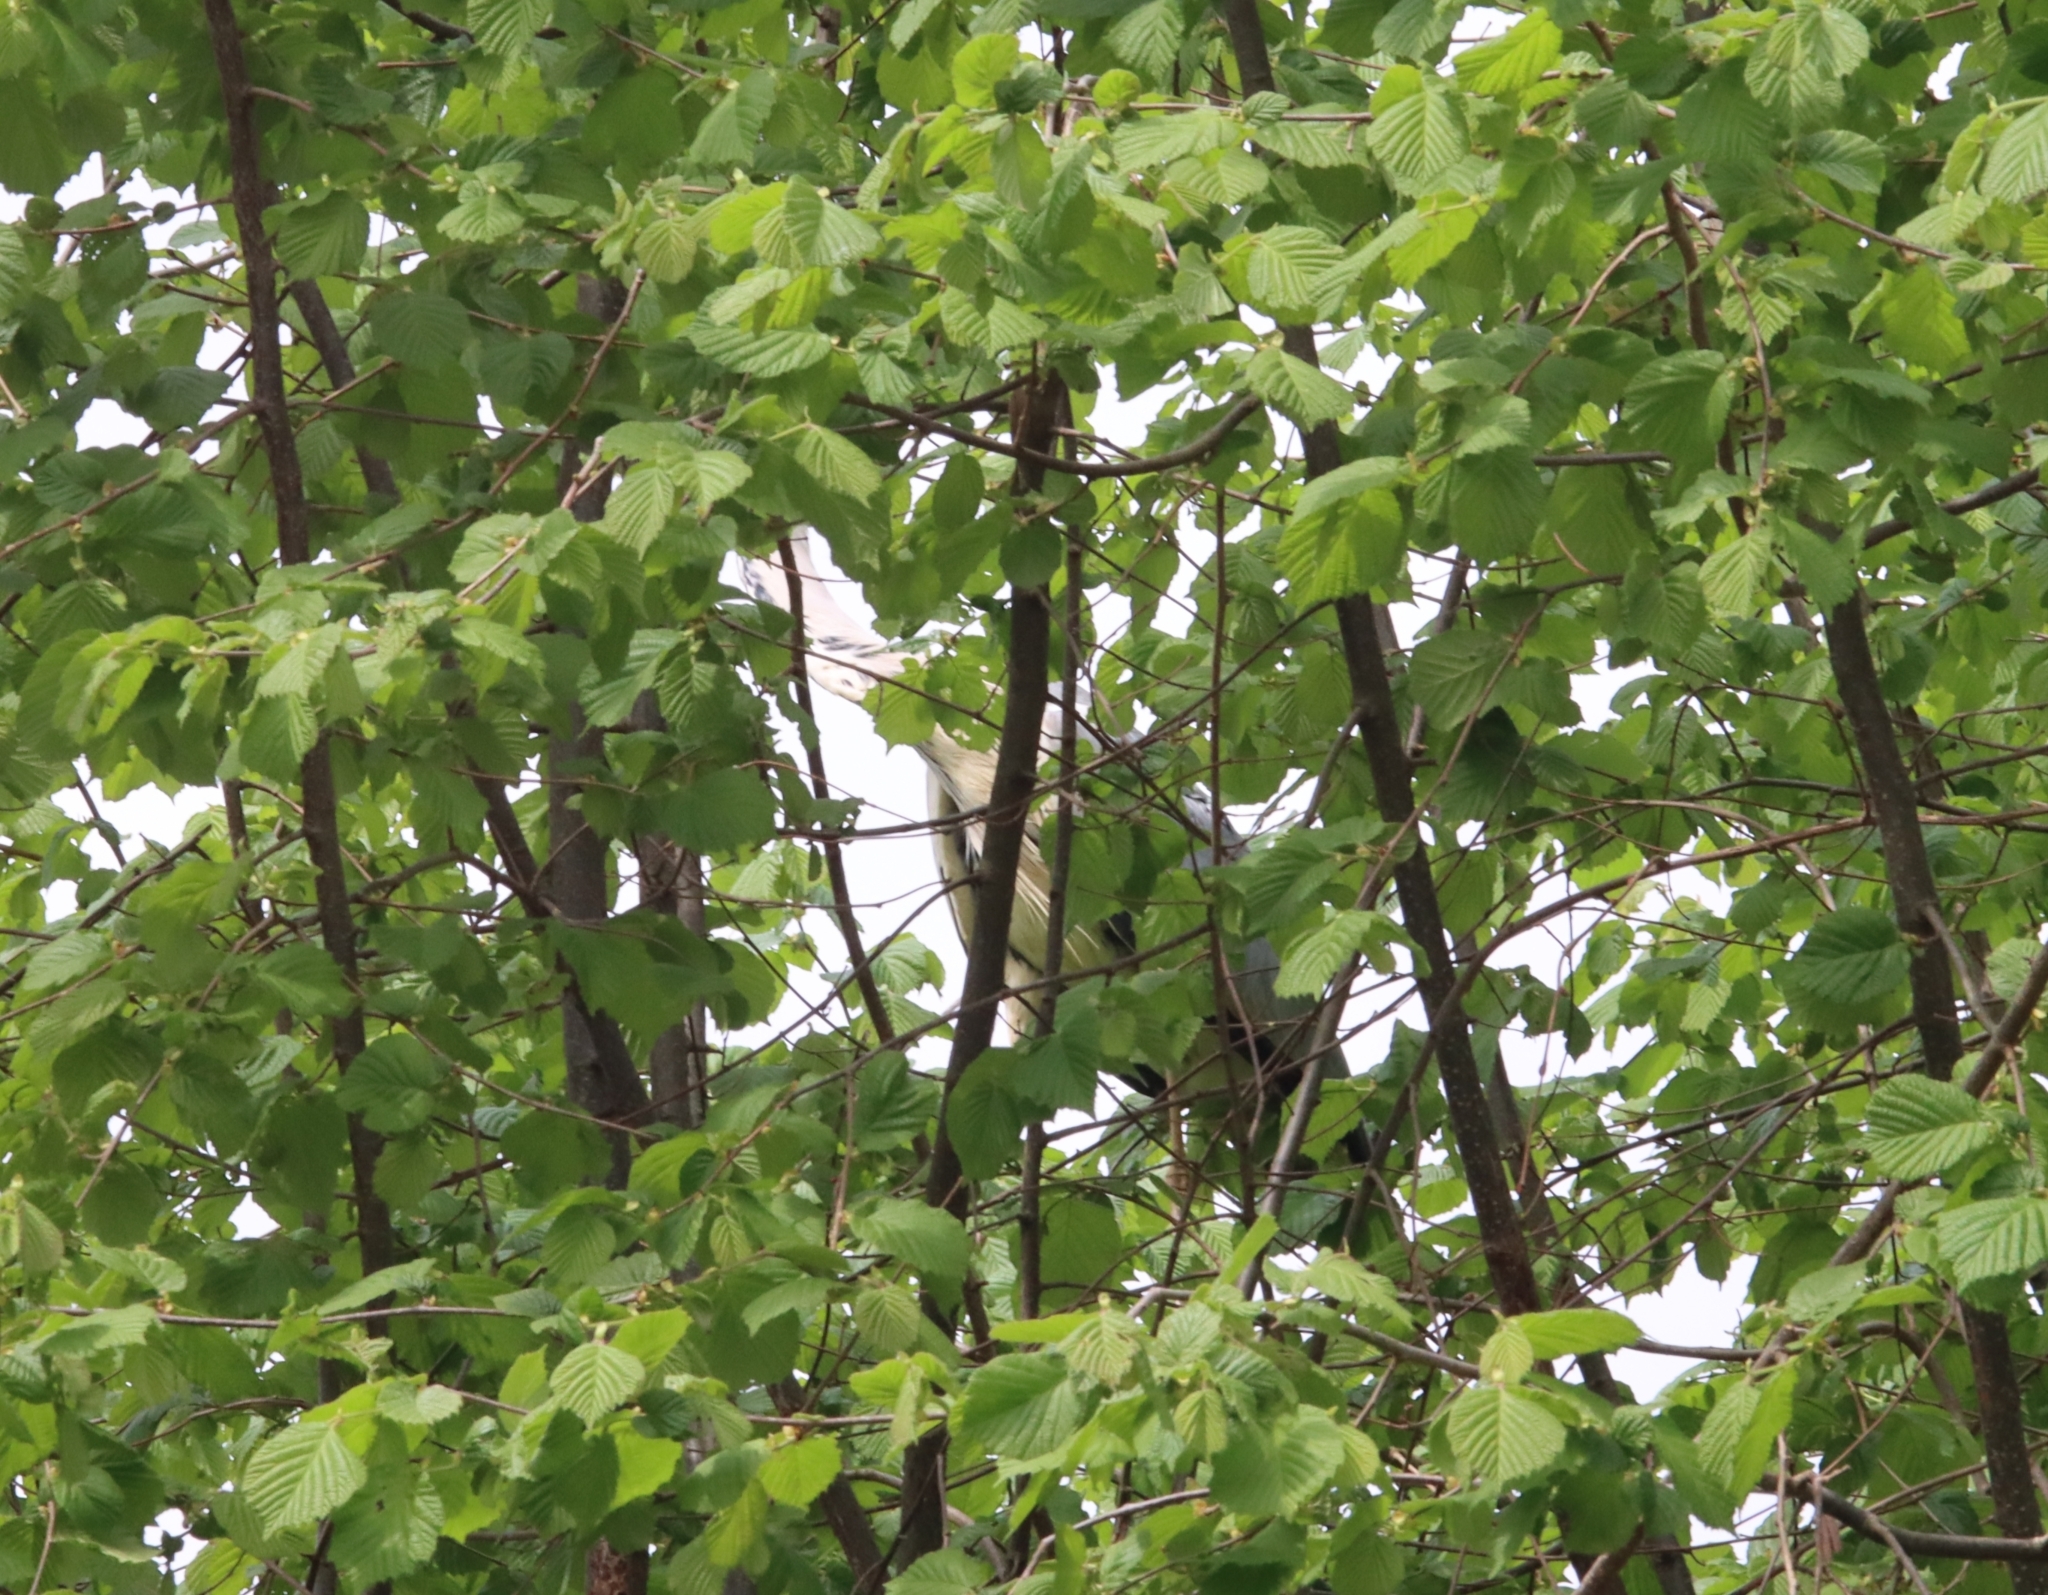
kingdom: Animalia
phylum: Chordata
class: Aves
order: Pelecaniformes
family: Ardeidae
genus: Ardea
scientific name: Ardea cinerea
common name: Grey heron
